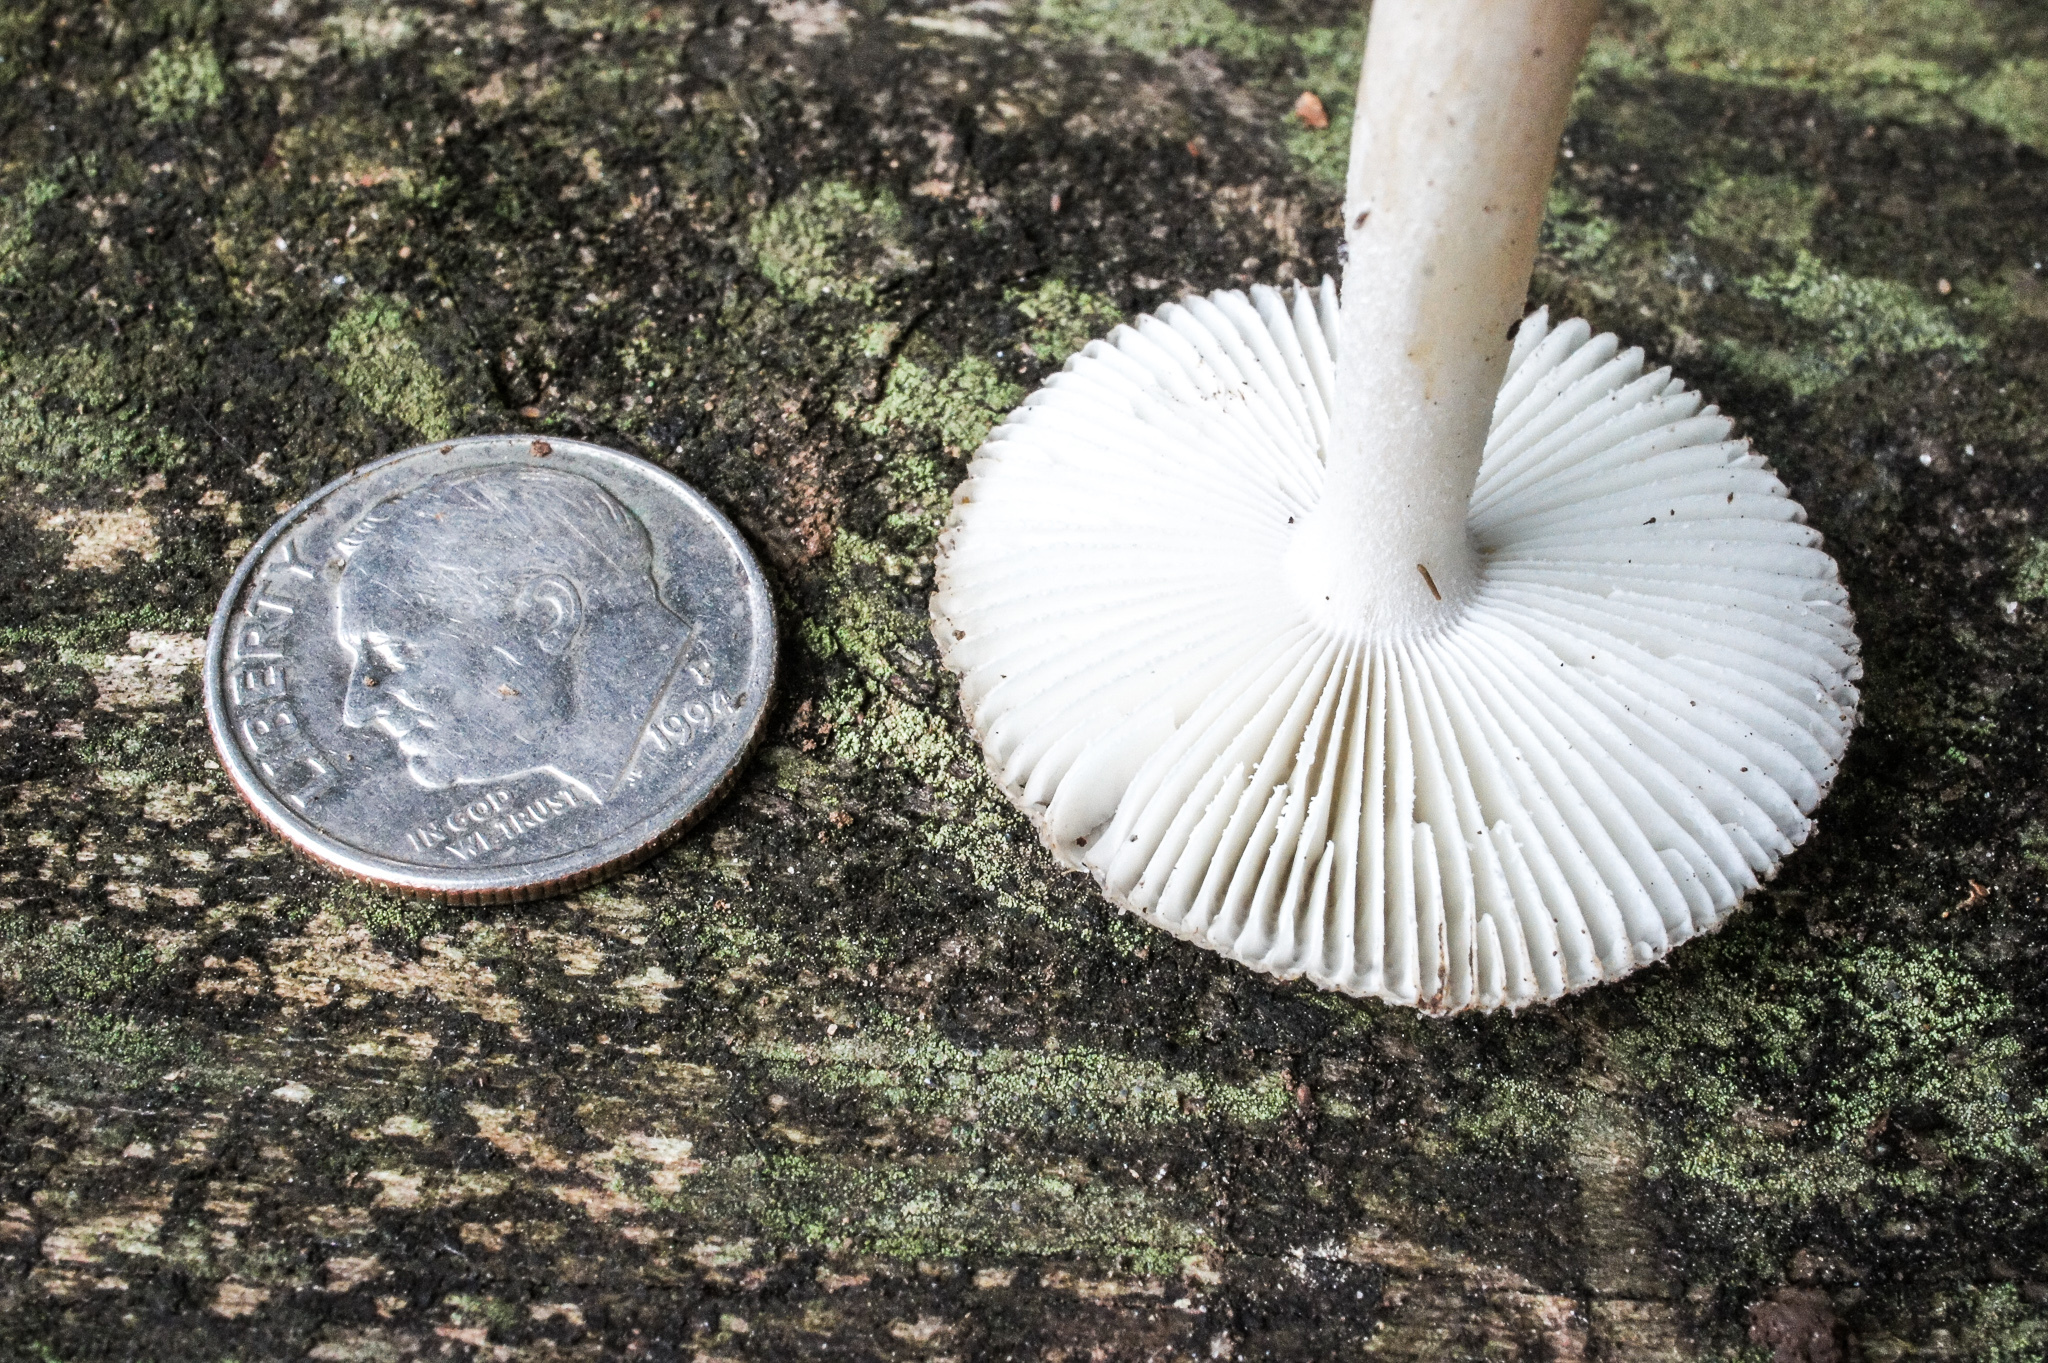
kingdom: Fungi
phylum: Basidiomycota
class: Agaricomycetes
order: Agaricales
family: Amanitaceae
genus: Amanita
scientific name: Amanita farinosa
